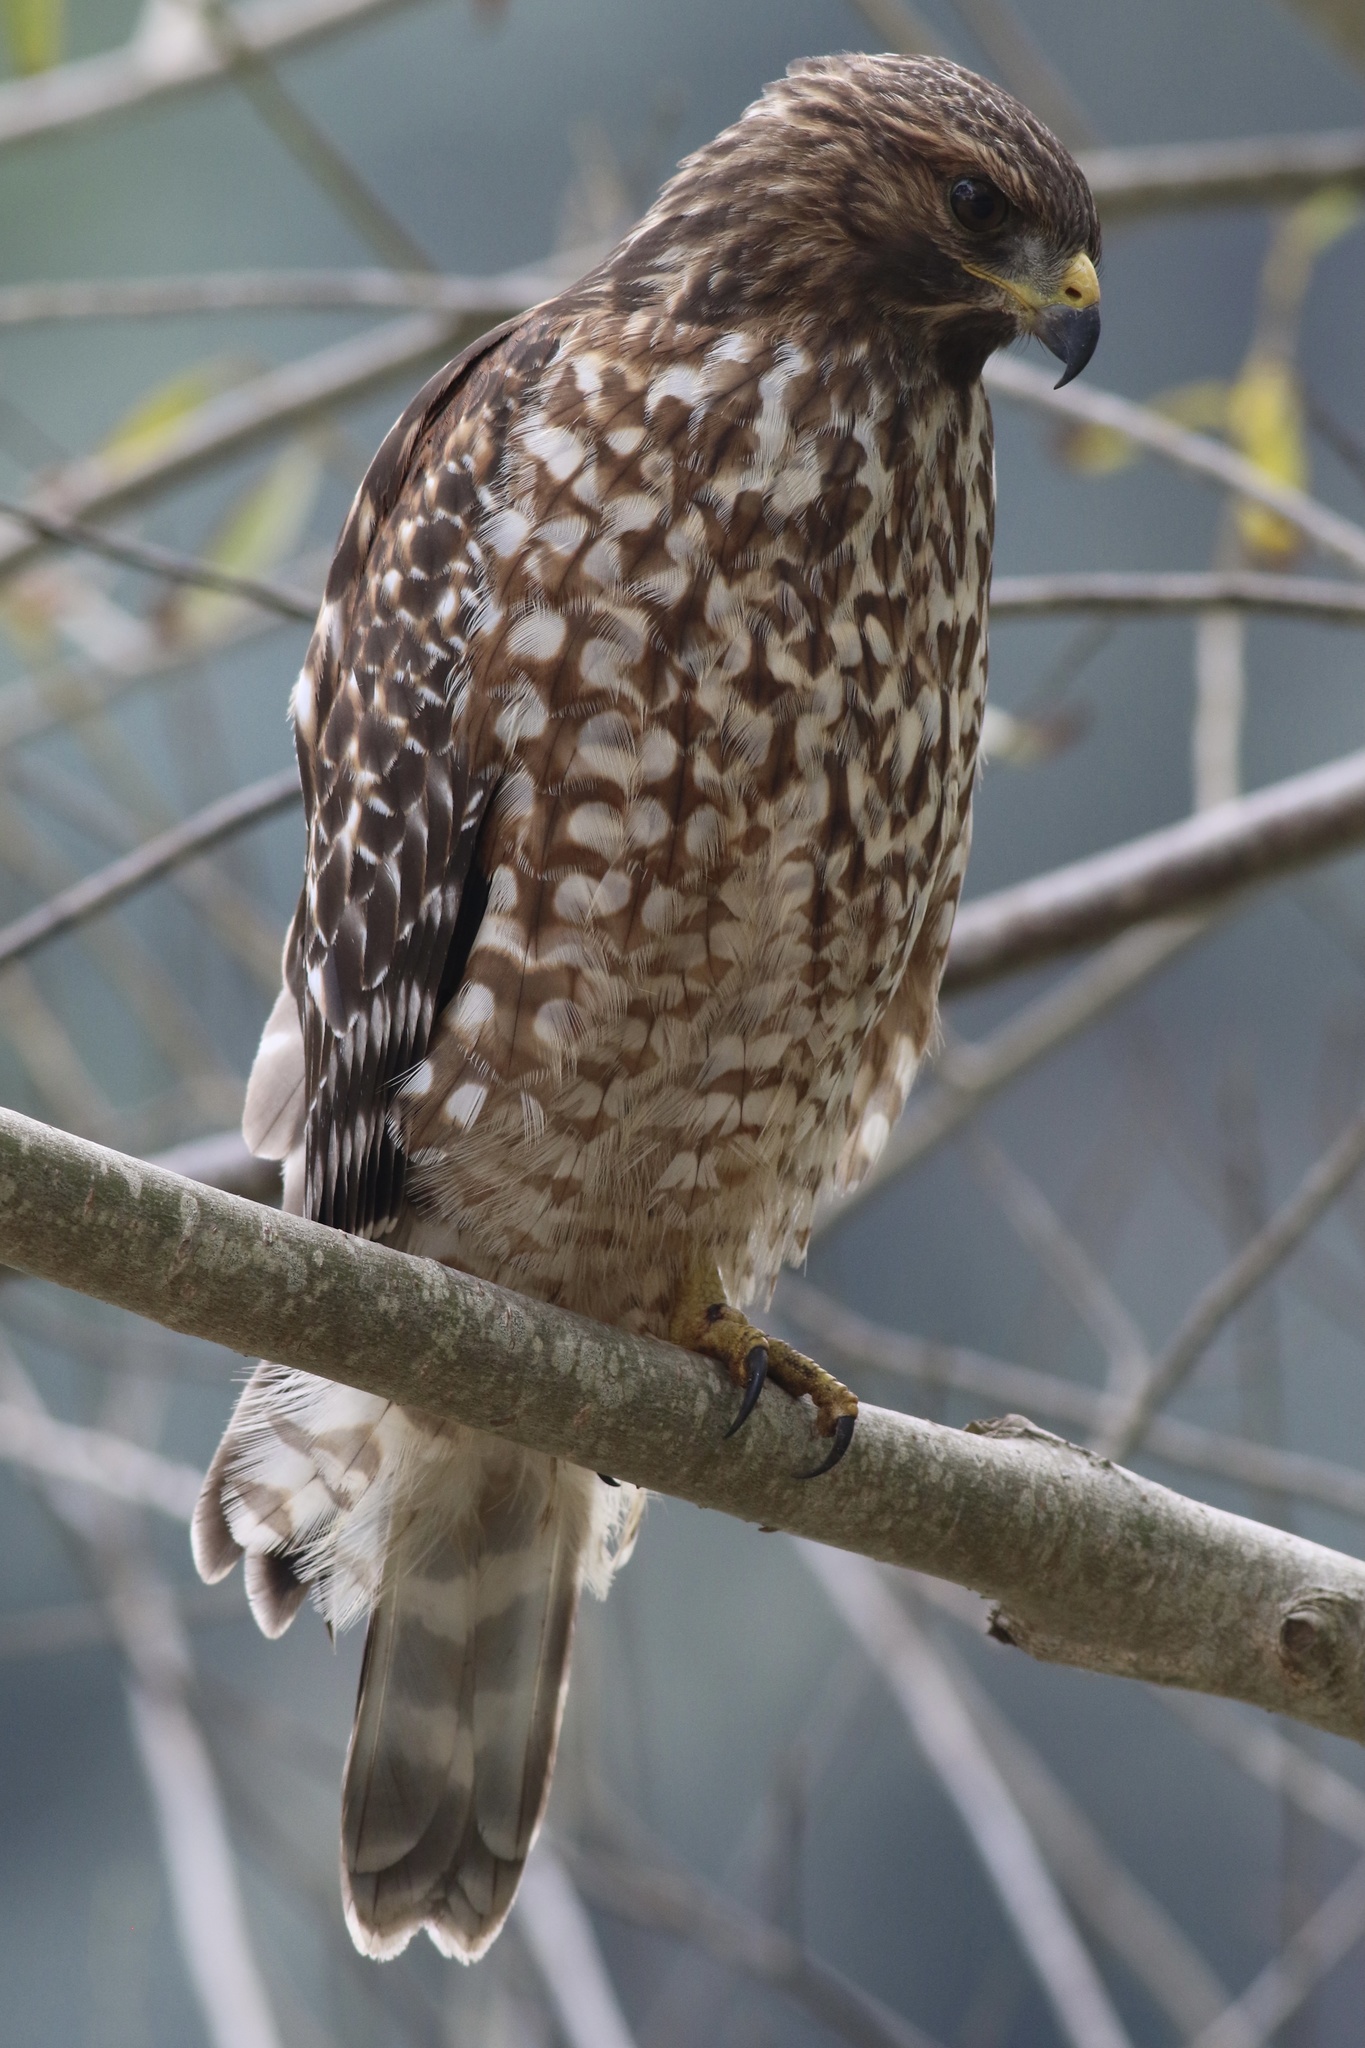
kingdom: Animalia
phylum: Chordata
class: Aves
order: Accipitriformes
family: Accipitridae
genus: Buteo
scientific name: Buteo lineatus
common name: Red-shouldered hawk
